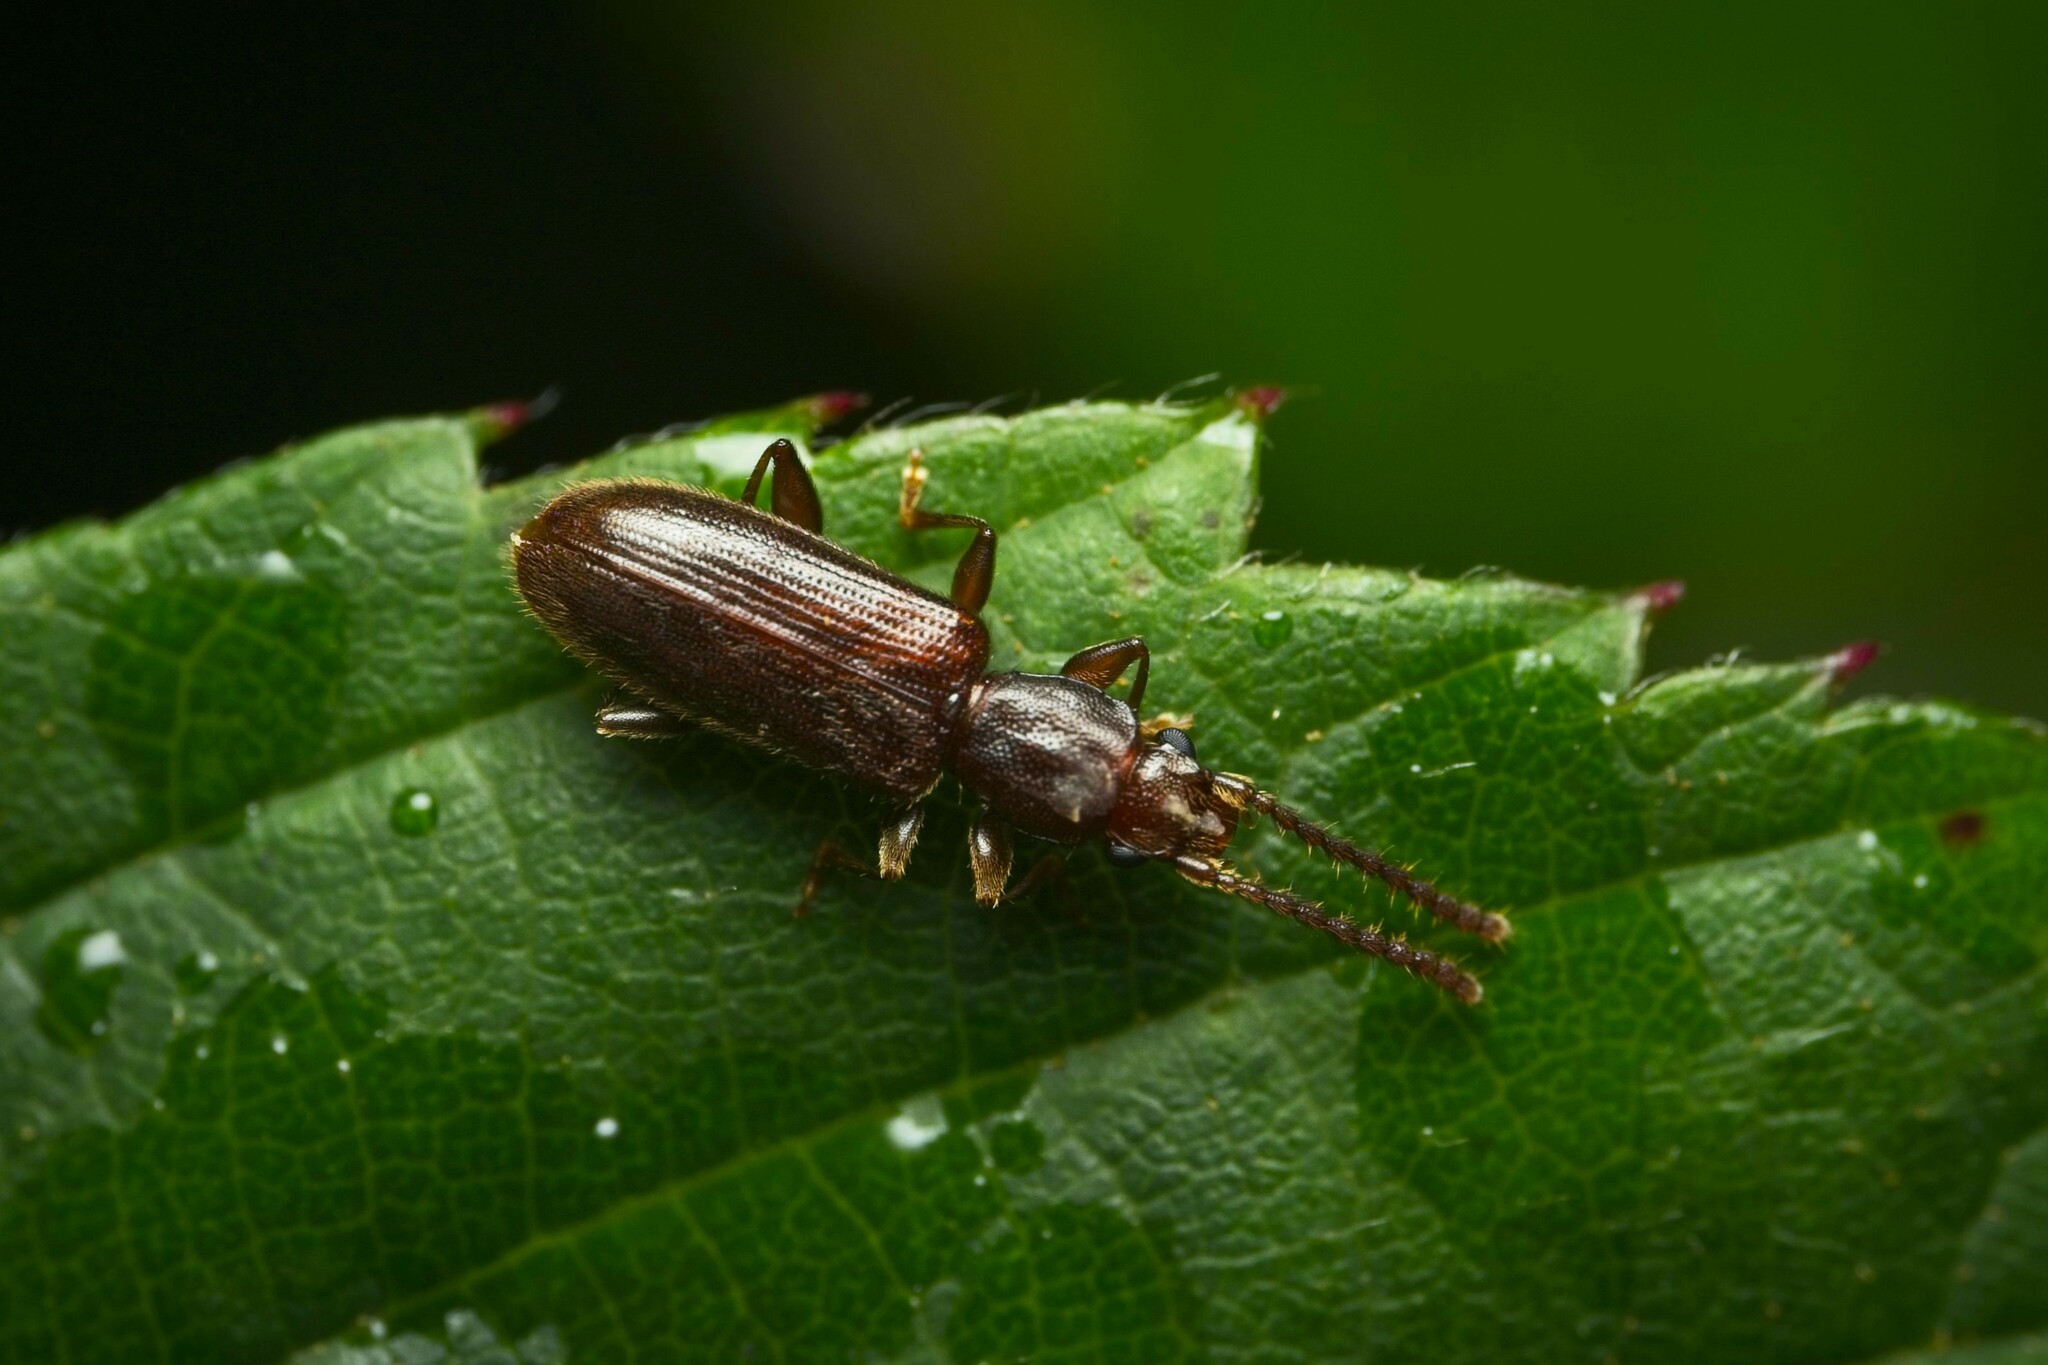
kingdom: Animalia
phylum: Arthropoda
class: Insecta
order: Coleoptera
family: Silvanidae
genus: Cryptamorpha
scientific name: Cryptamorpha brevicornis
